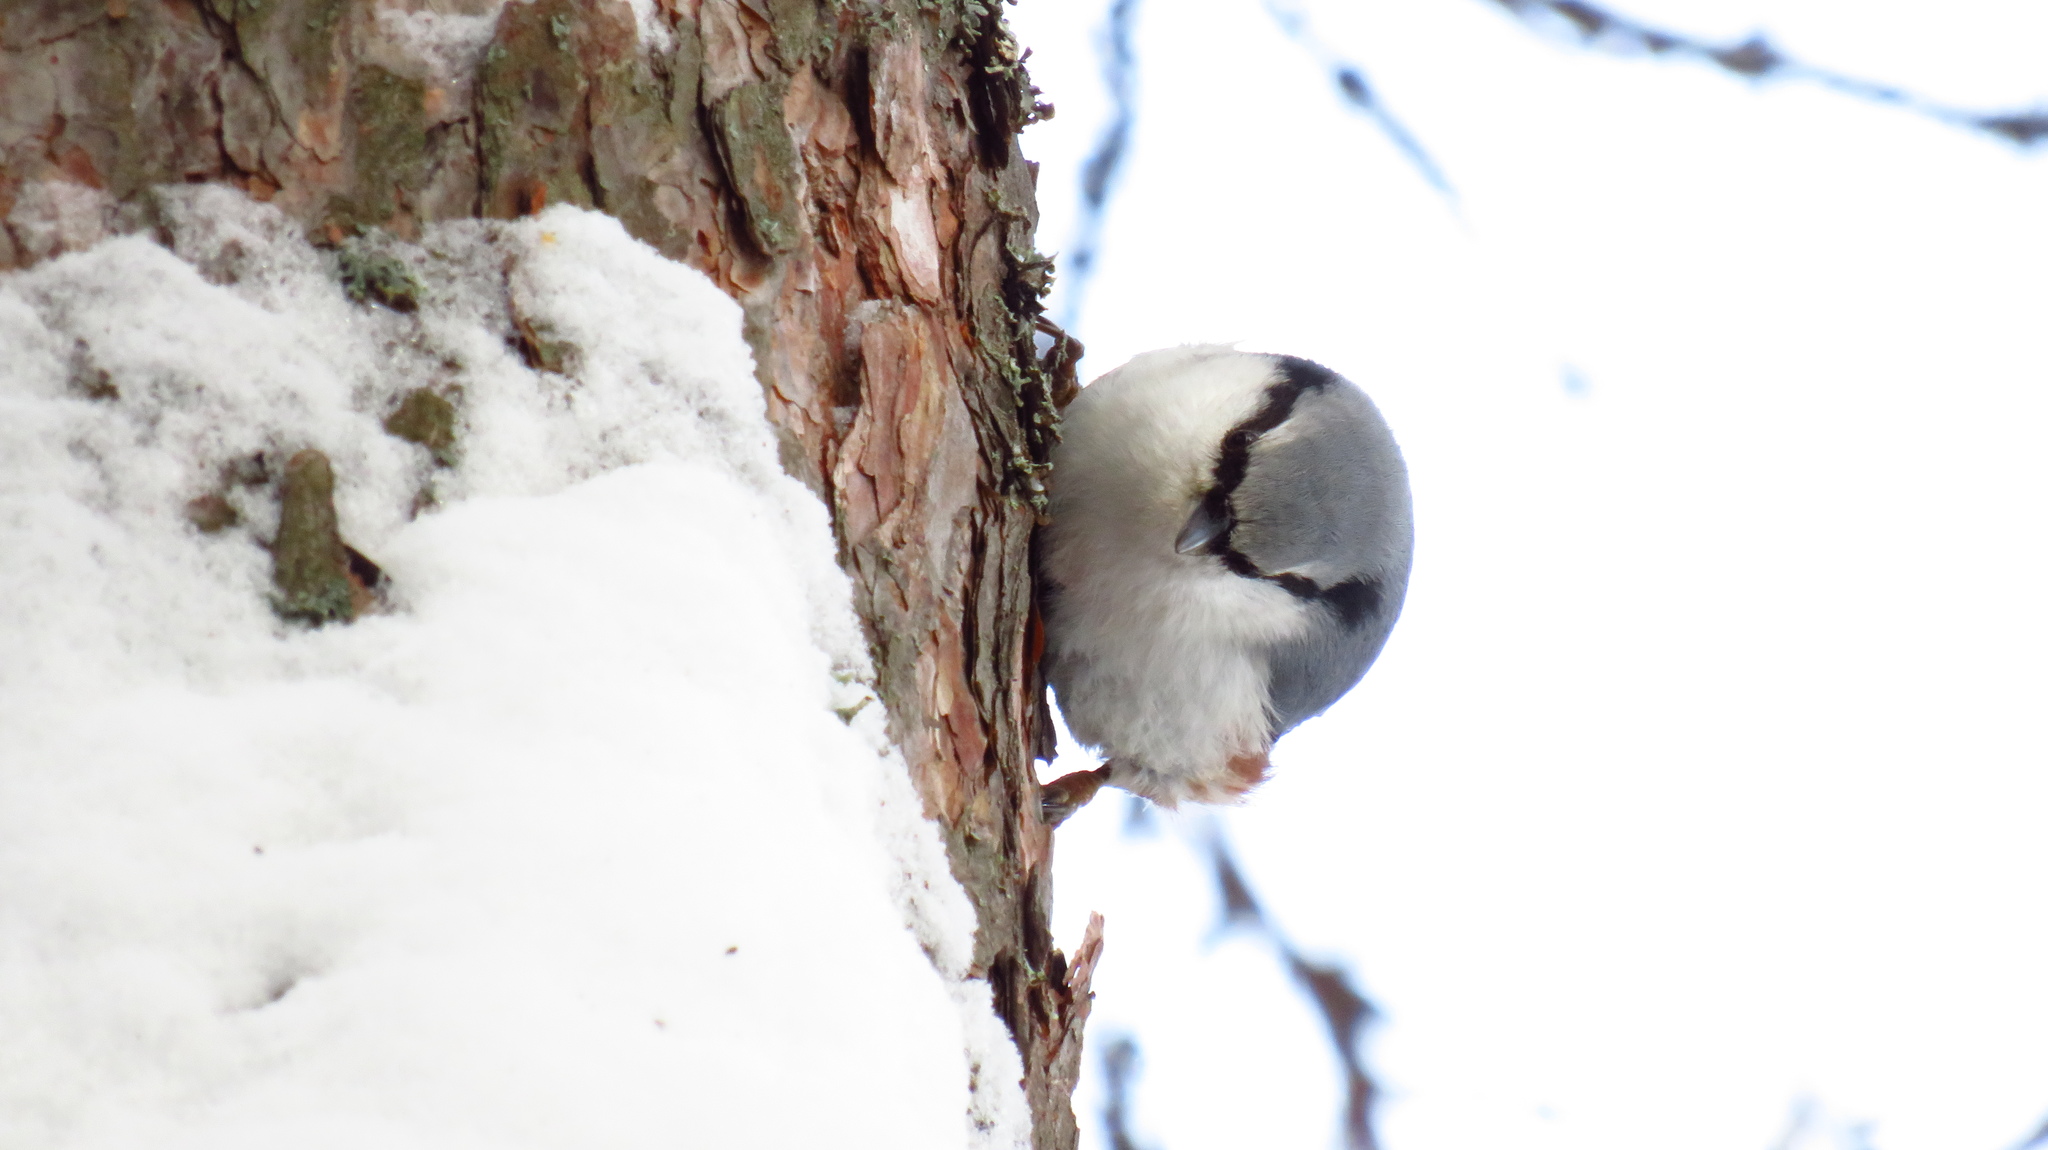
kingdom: Animalia
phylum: Chordata
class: Aves
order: Passeriformes
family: Sittidae
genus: Sitta
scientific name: Sitta europaea
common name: Eurasian nuthatch
